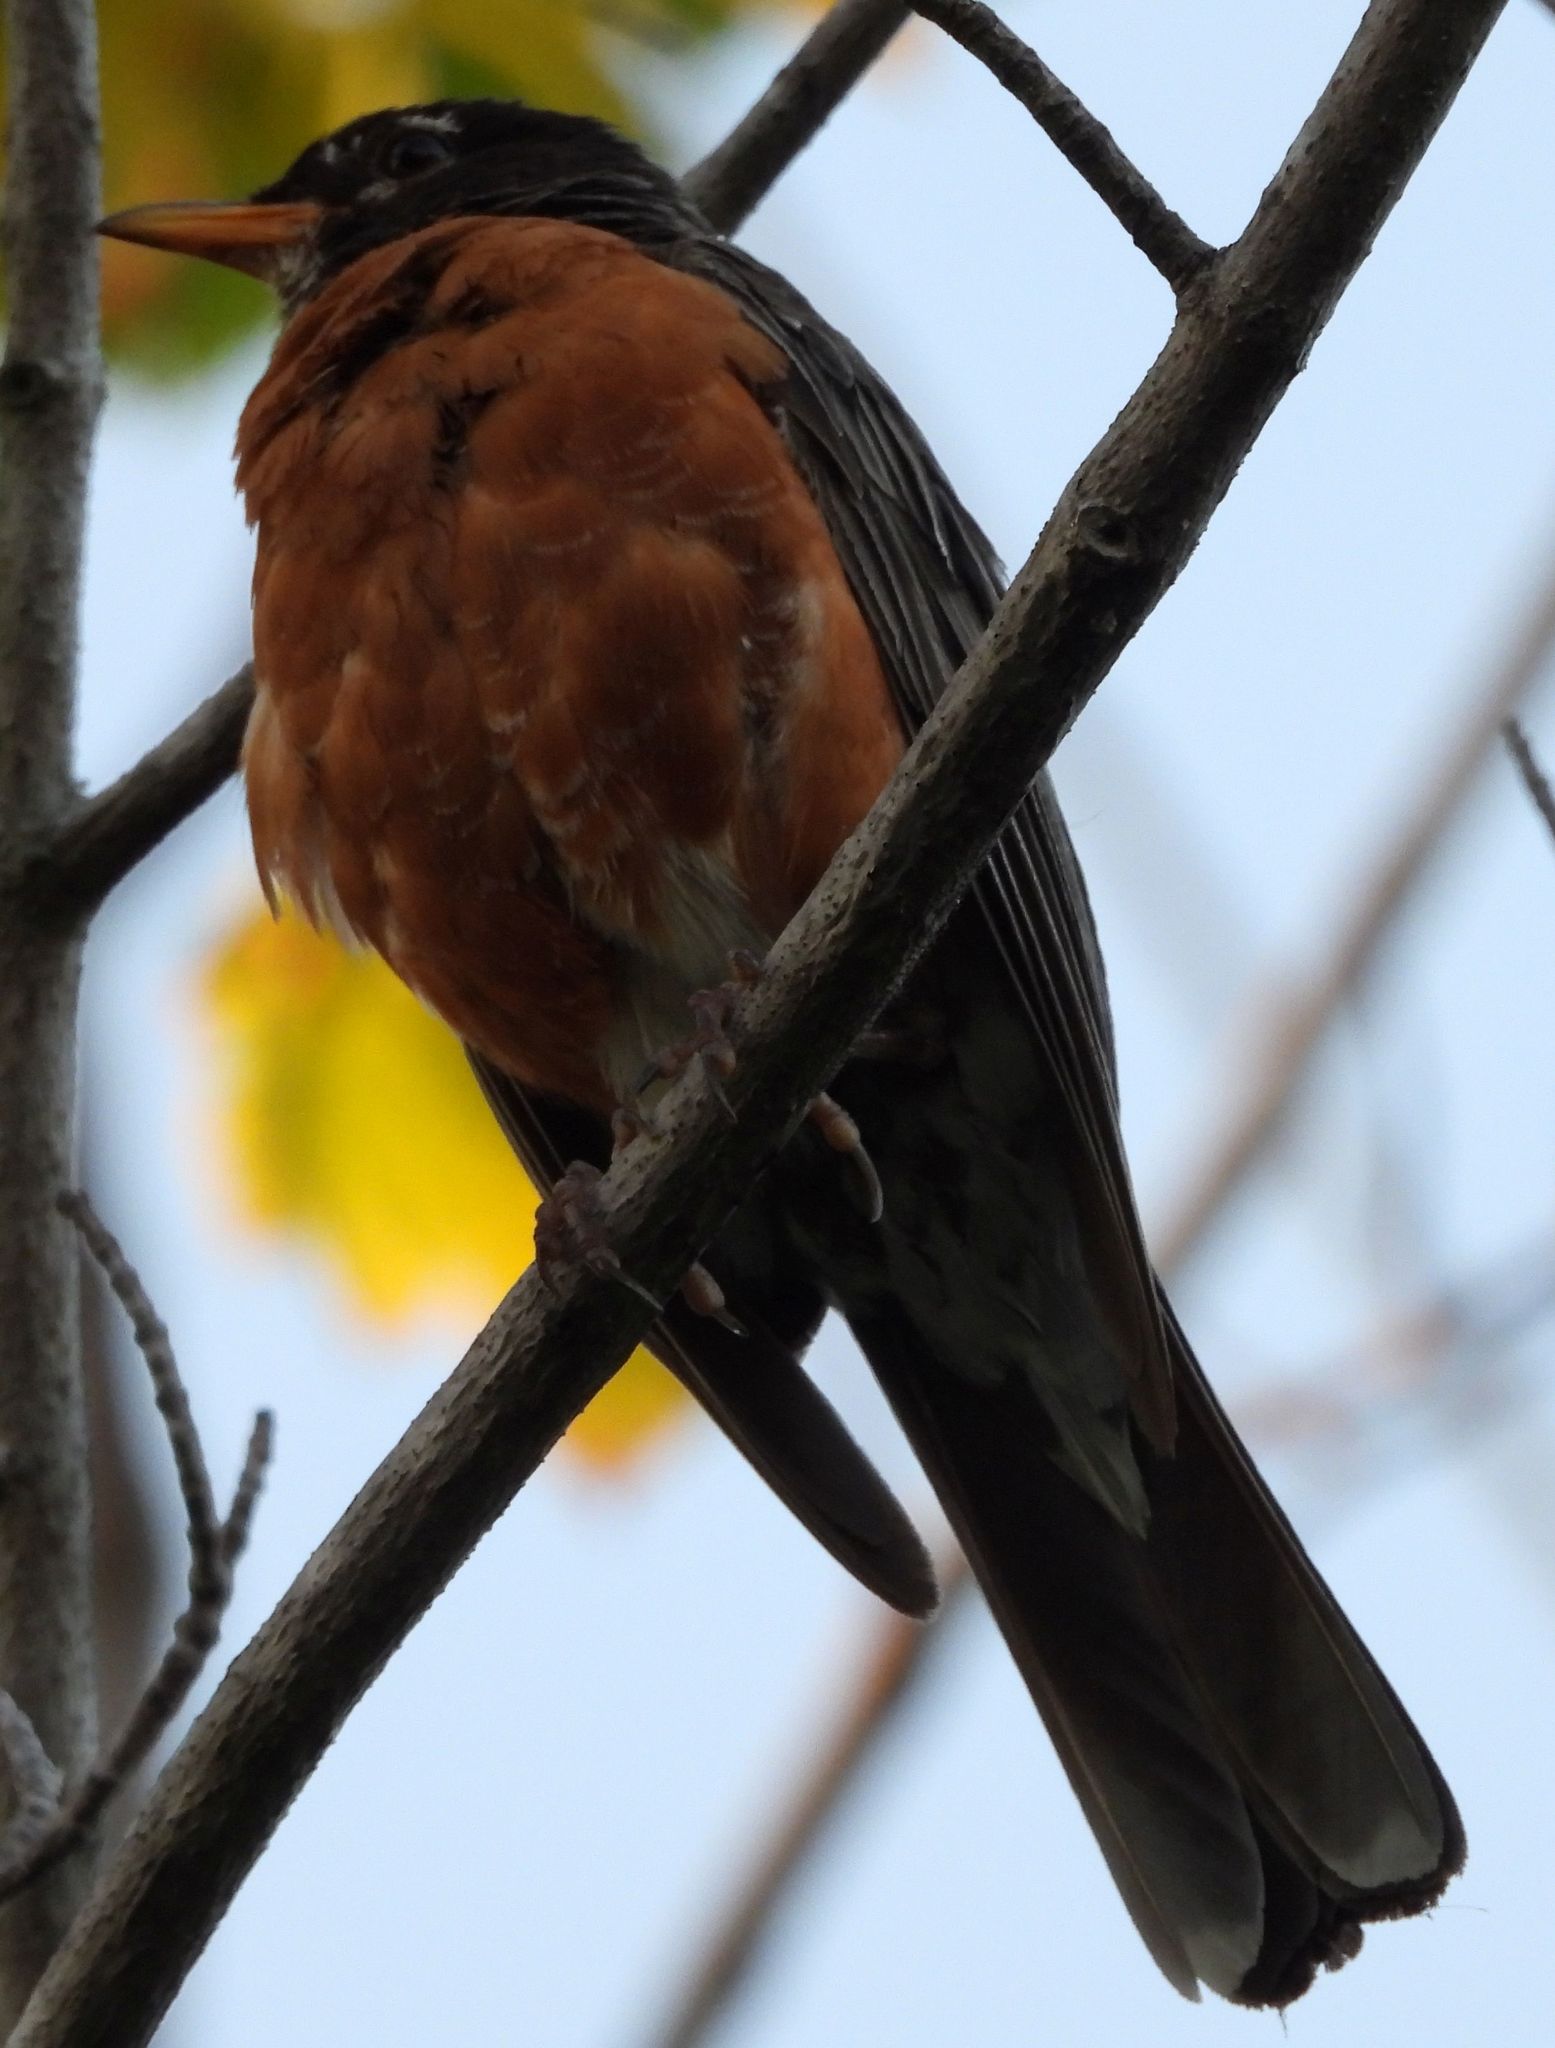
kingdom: Animalia
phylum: Chordata
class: Aves
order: Passeriformes
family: Turdidae
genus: Turdus
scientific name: Turdus migratorius
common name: American robin
